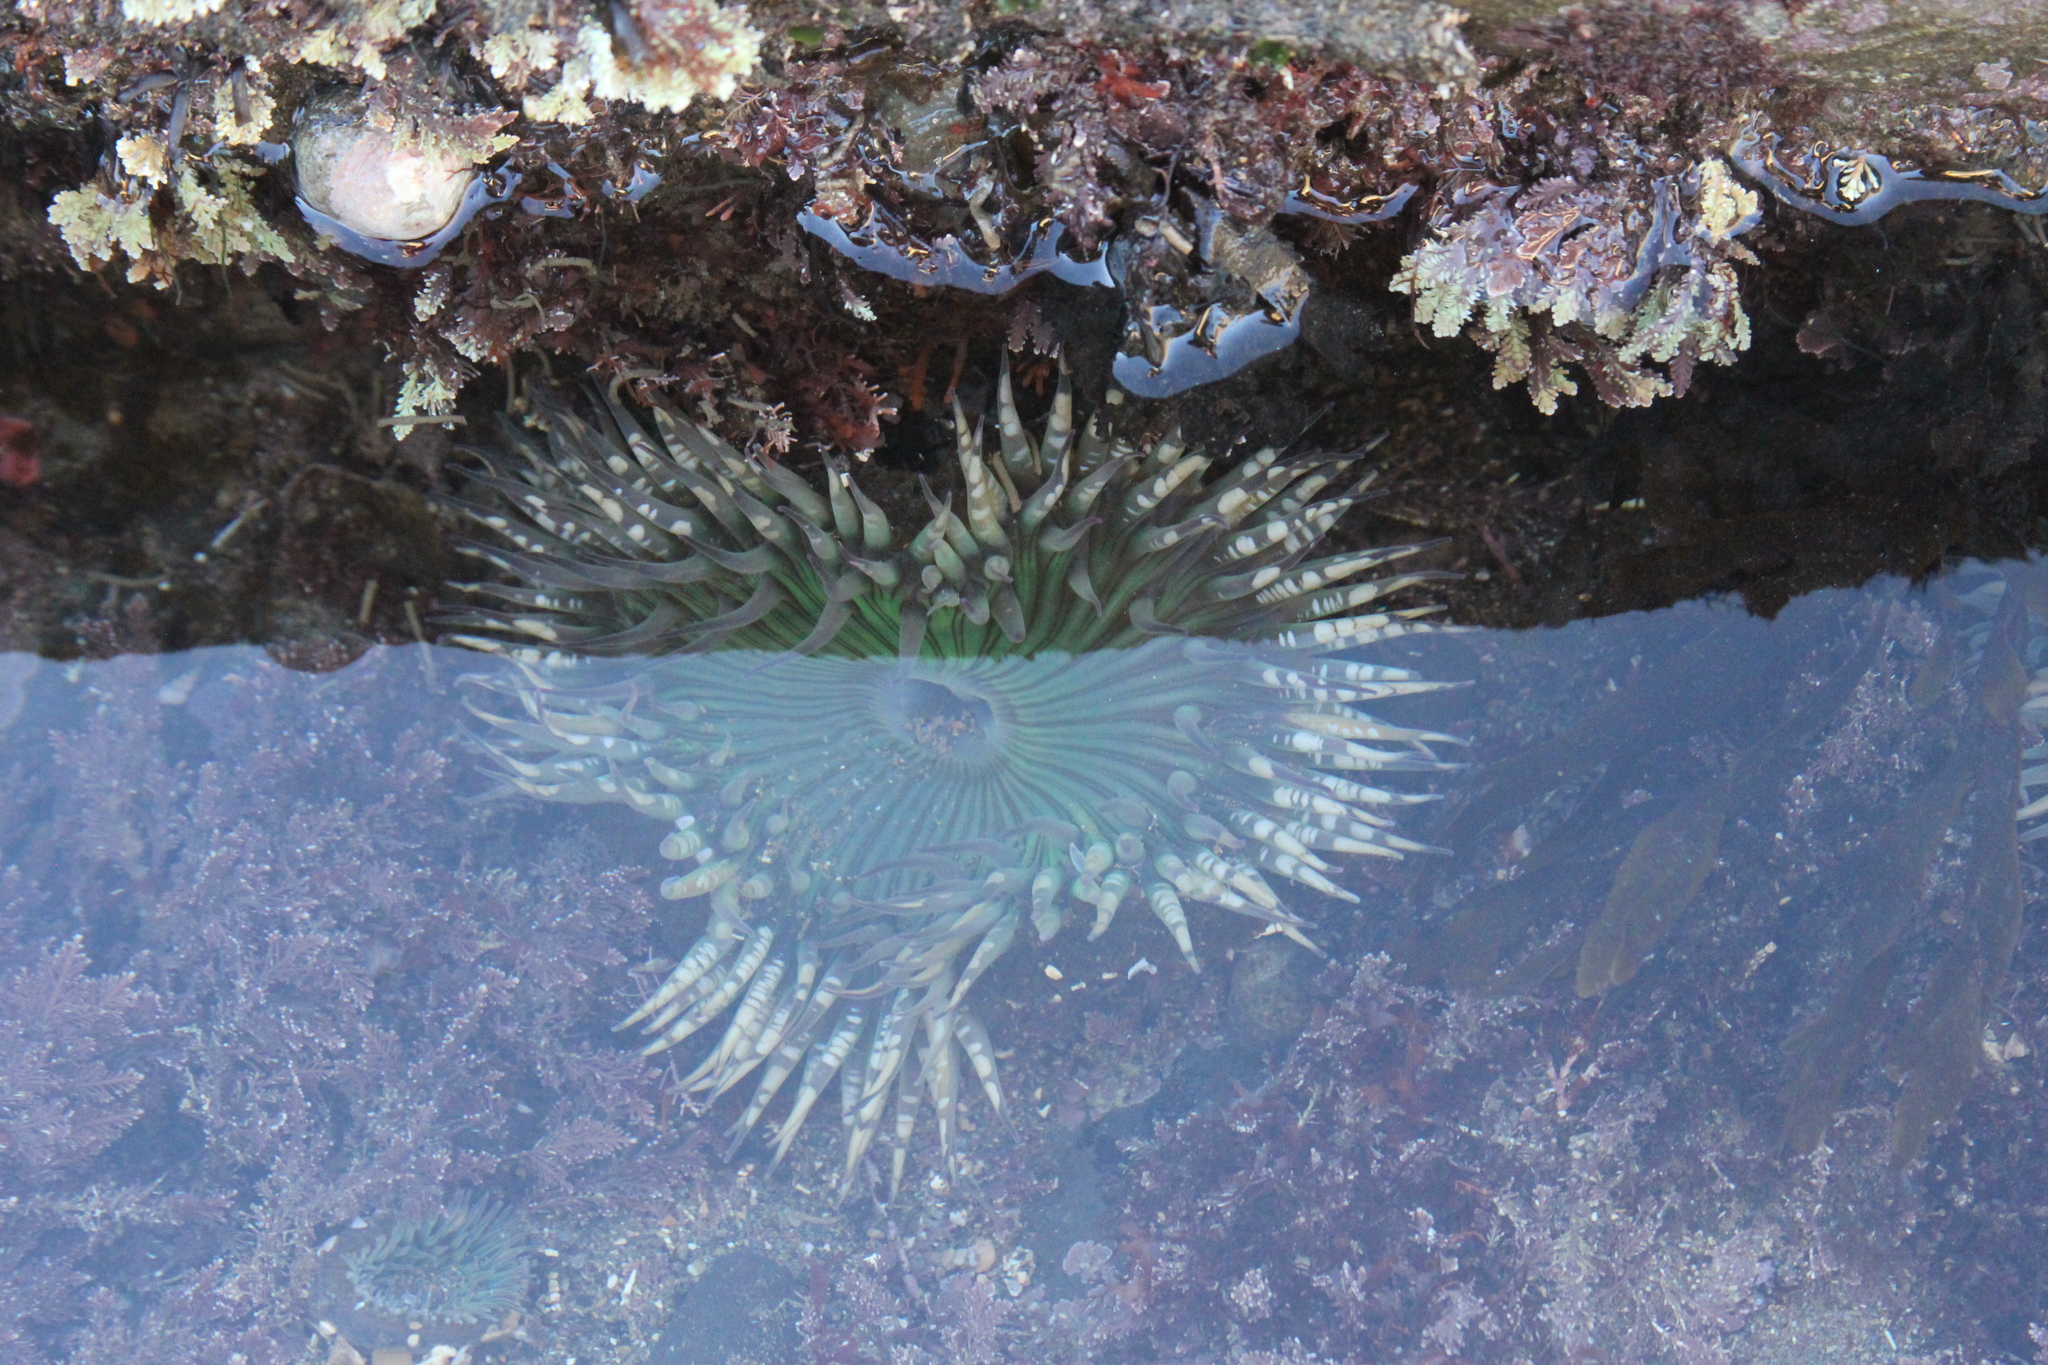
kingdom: Animalia
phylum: Cnidaria
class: Anthozoa
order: Actiniaria
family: Actiniidae
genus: Anthopleura
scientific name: Anthopleura sola
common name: Sun anemone
